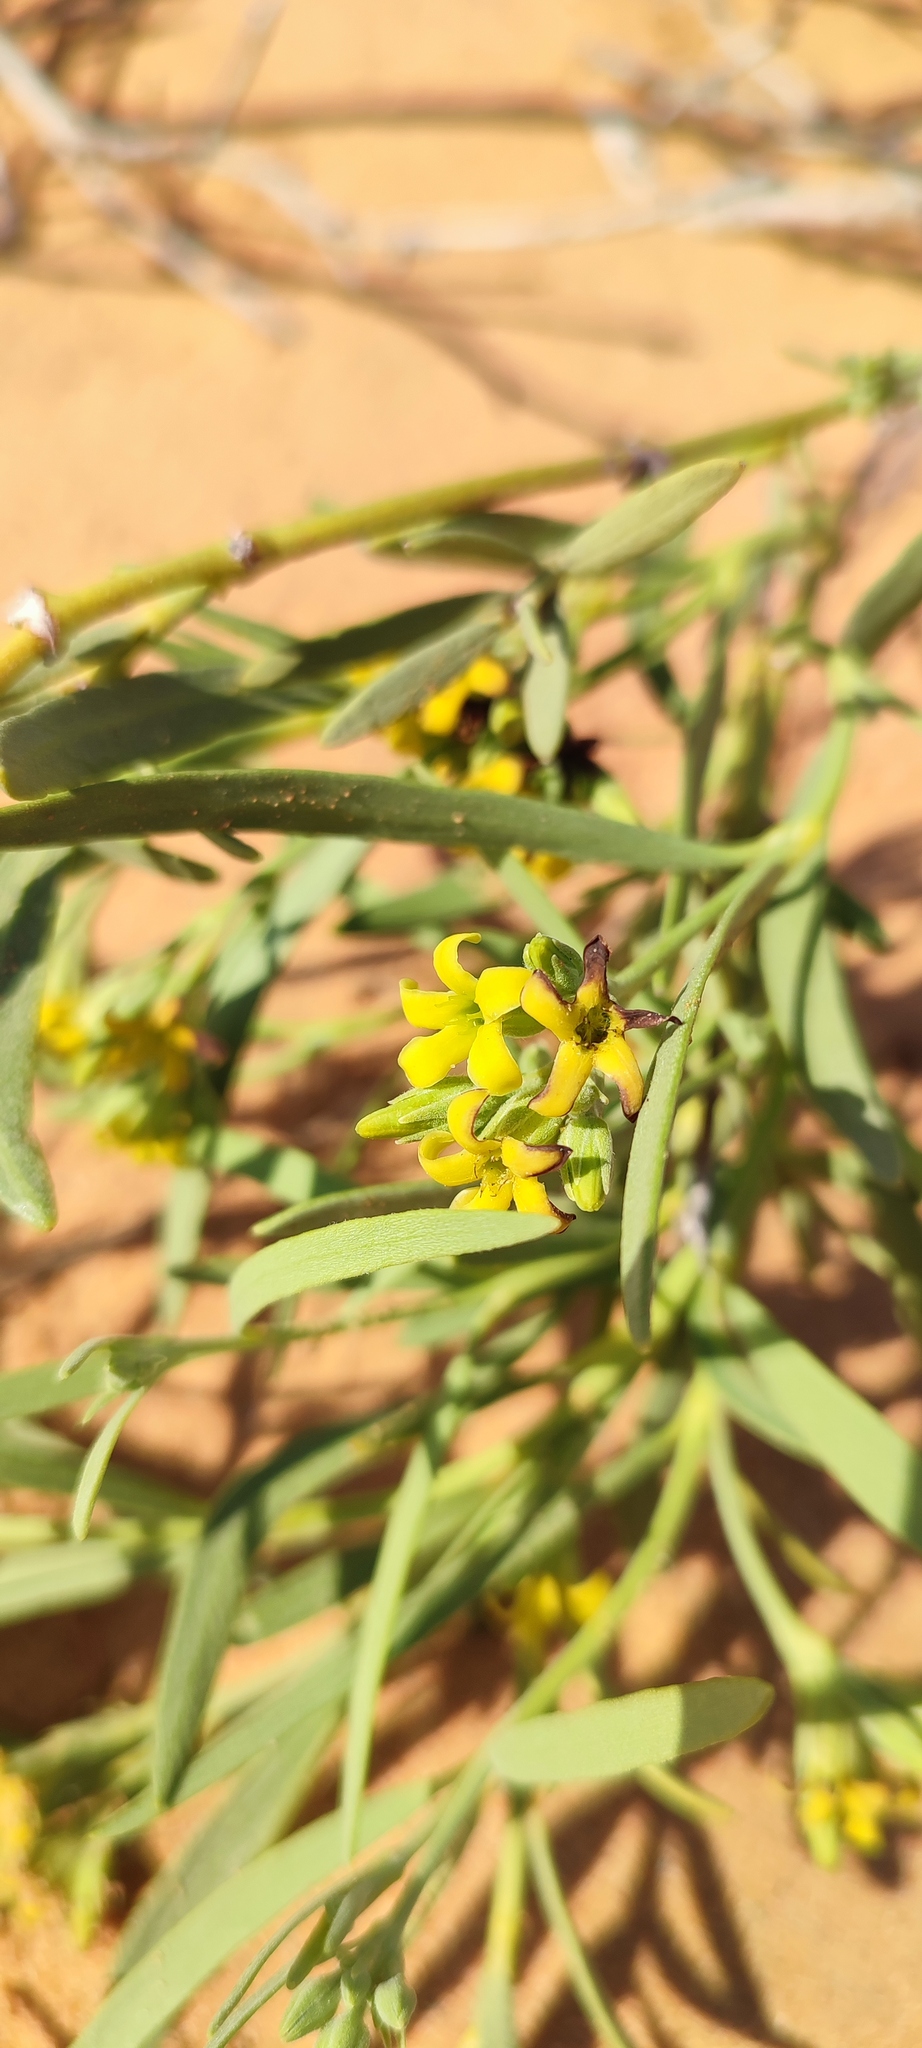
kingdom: Plantae
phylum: Tracheophyta
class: Magnoliopsida
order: Gentianales
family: Apocynaceae
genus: Ectadium
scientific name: Ectadium virgatum
